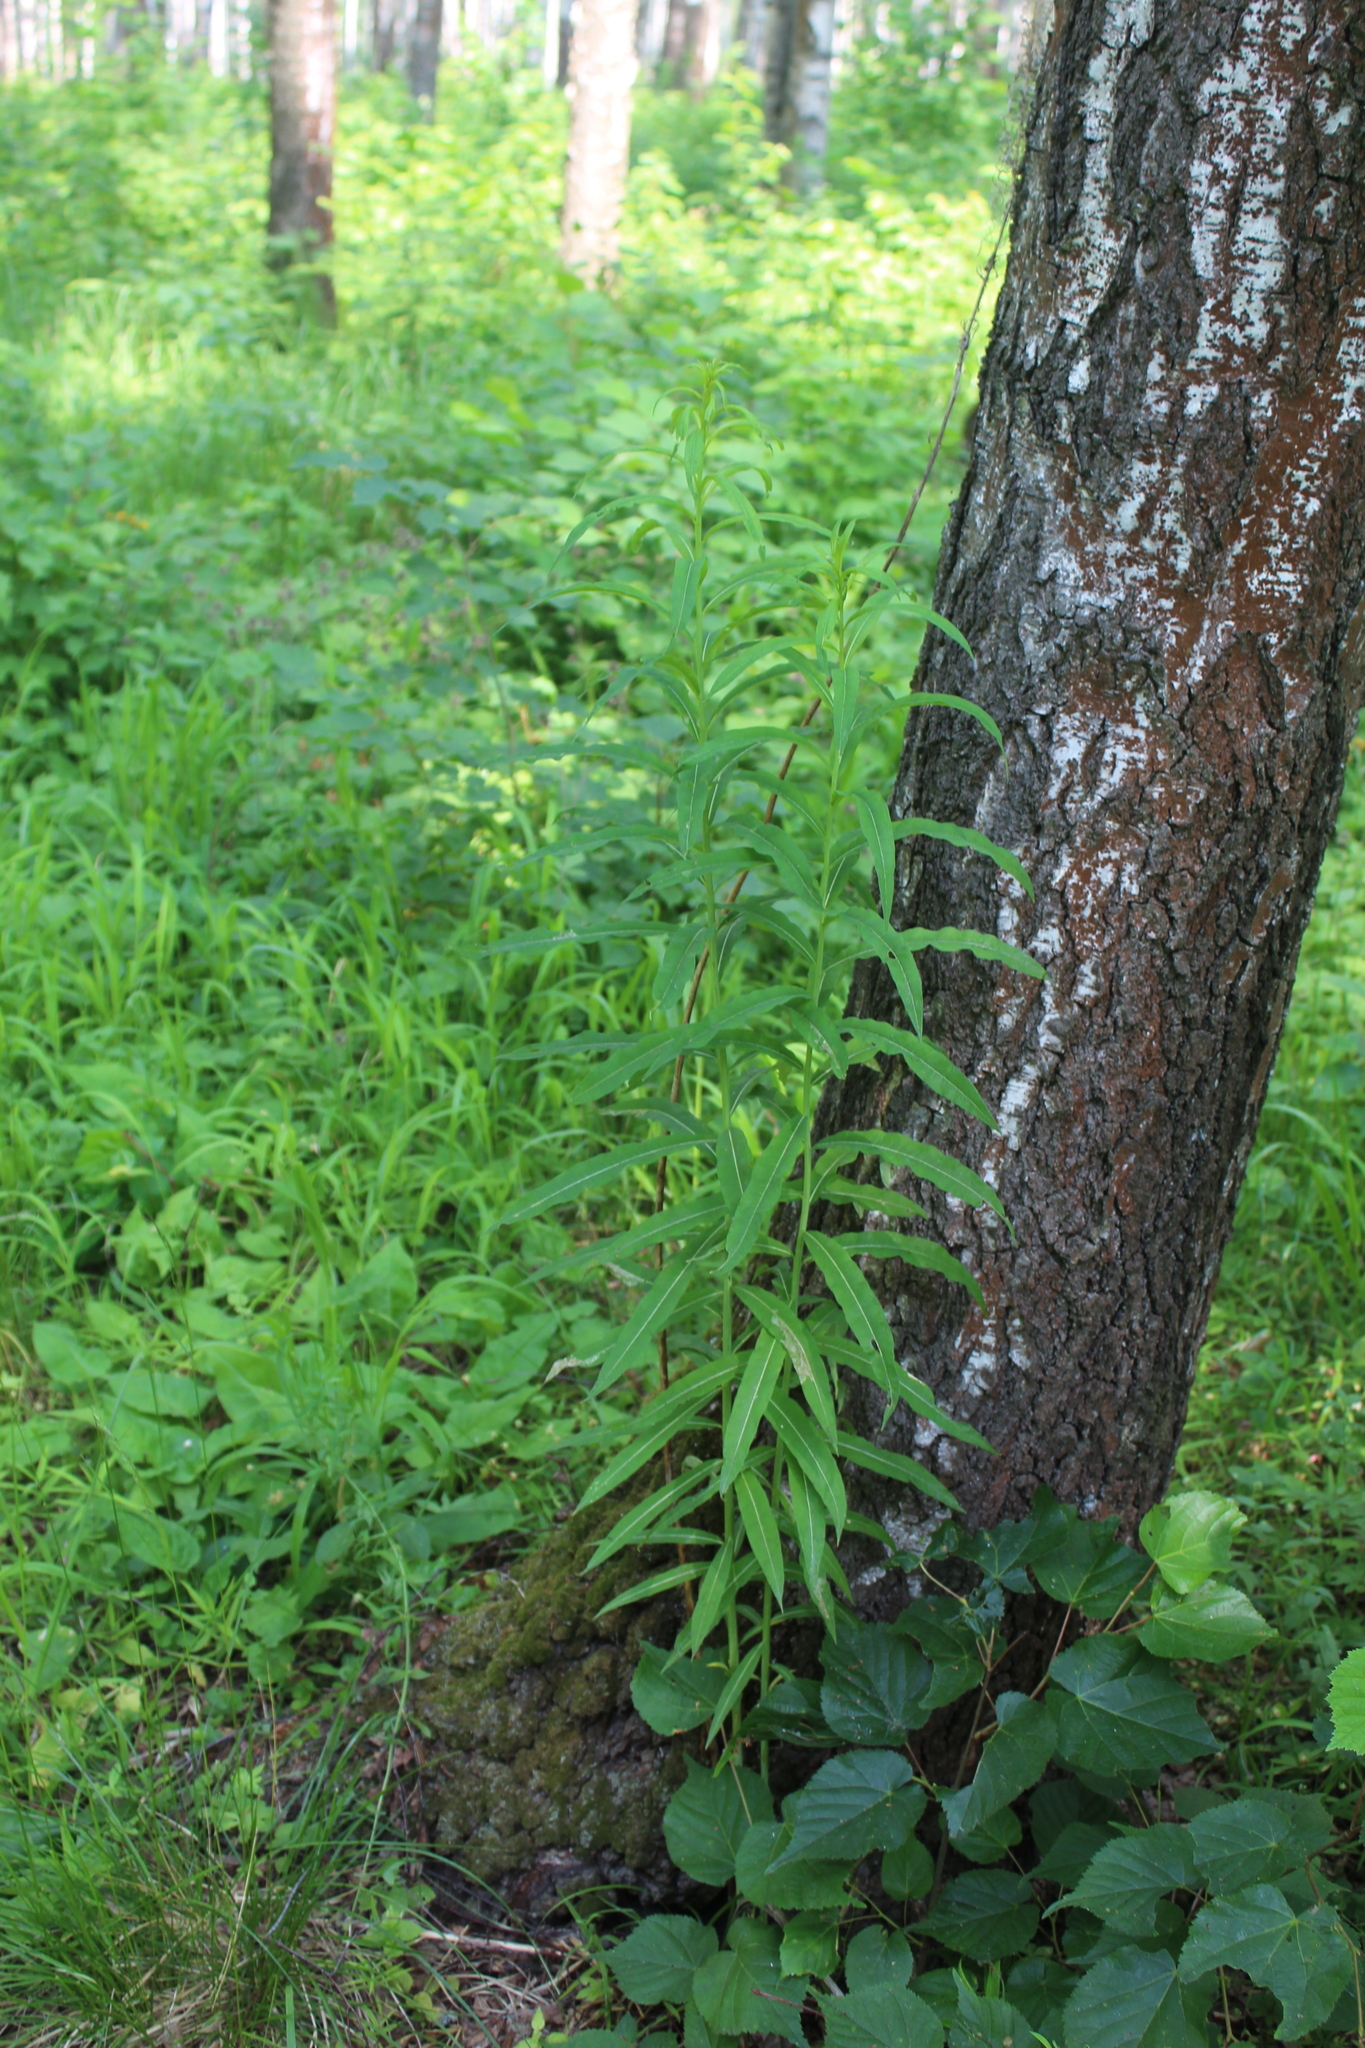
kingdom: Plantae
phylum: Tracheophyta
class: Magnoliopsida
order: Myrtales
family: Onagraceae
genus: Chamaenerion
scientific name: Chamaenerion angustifolium
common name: Fireweed
